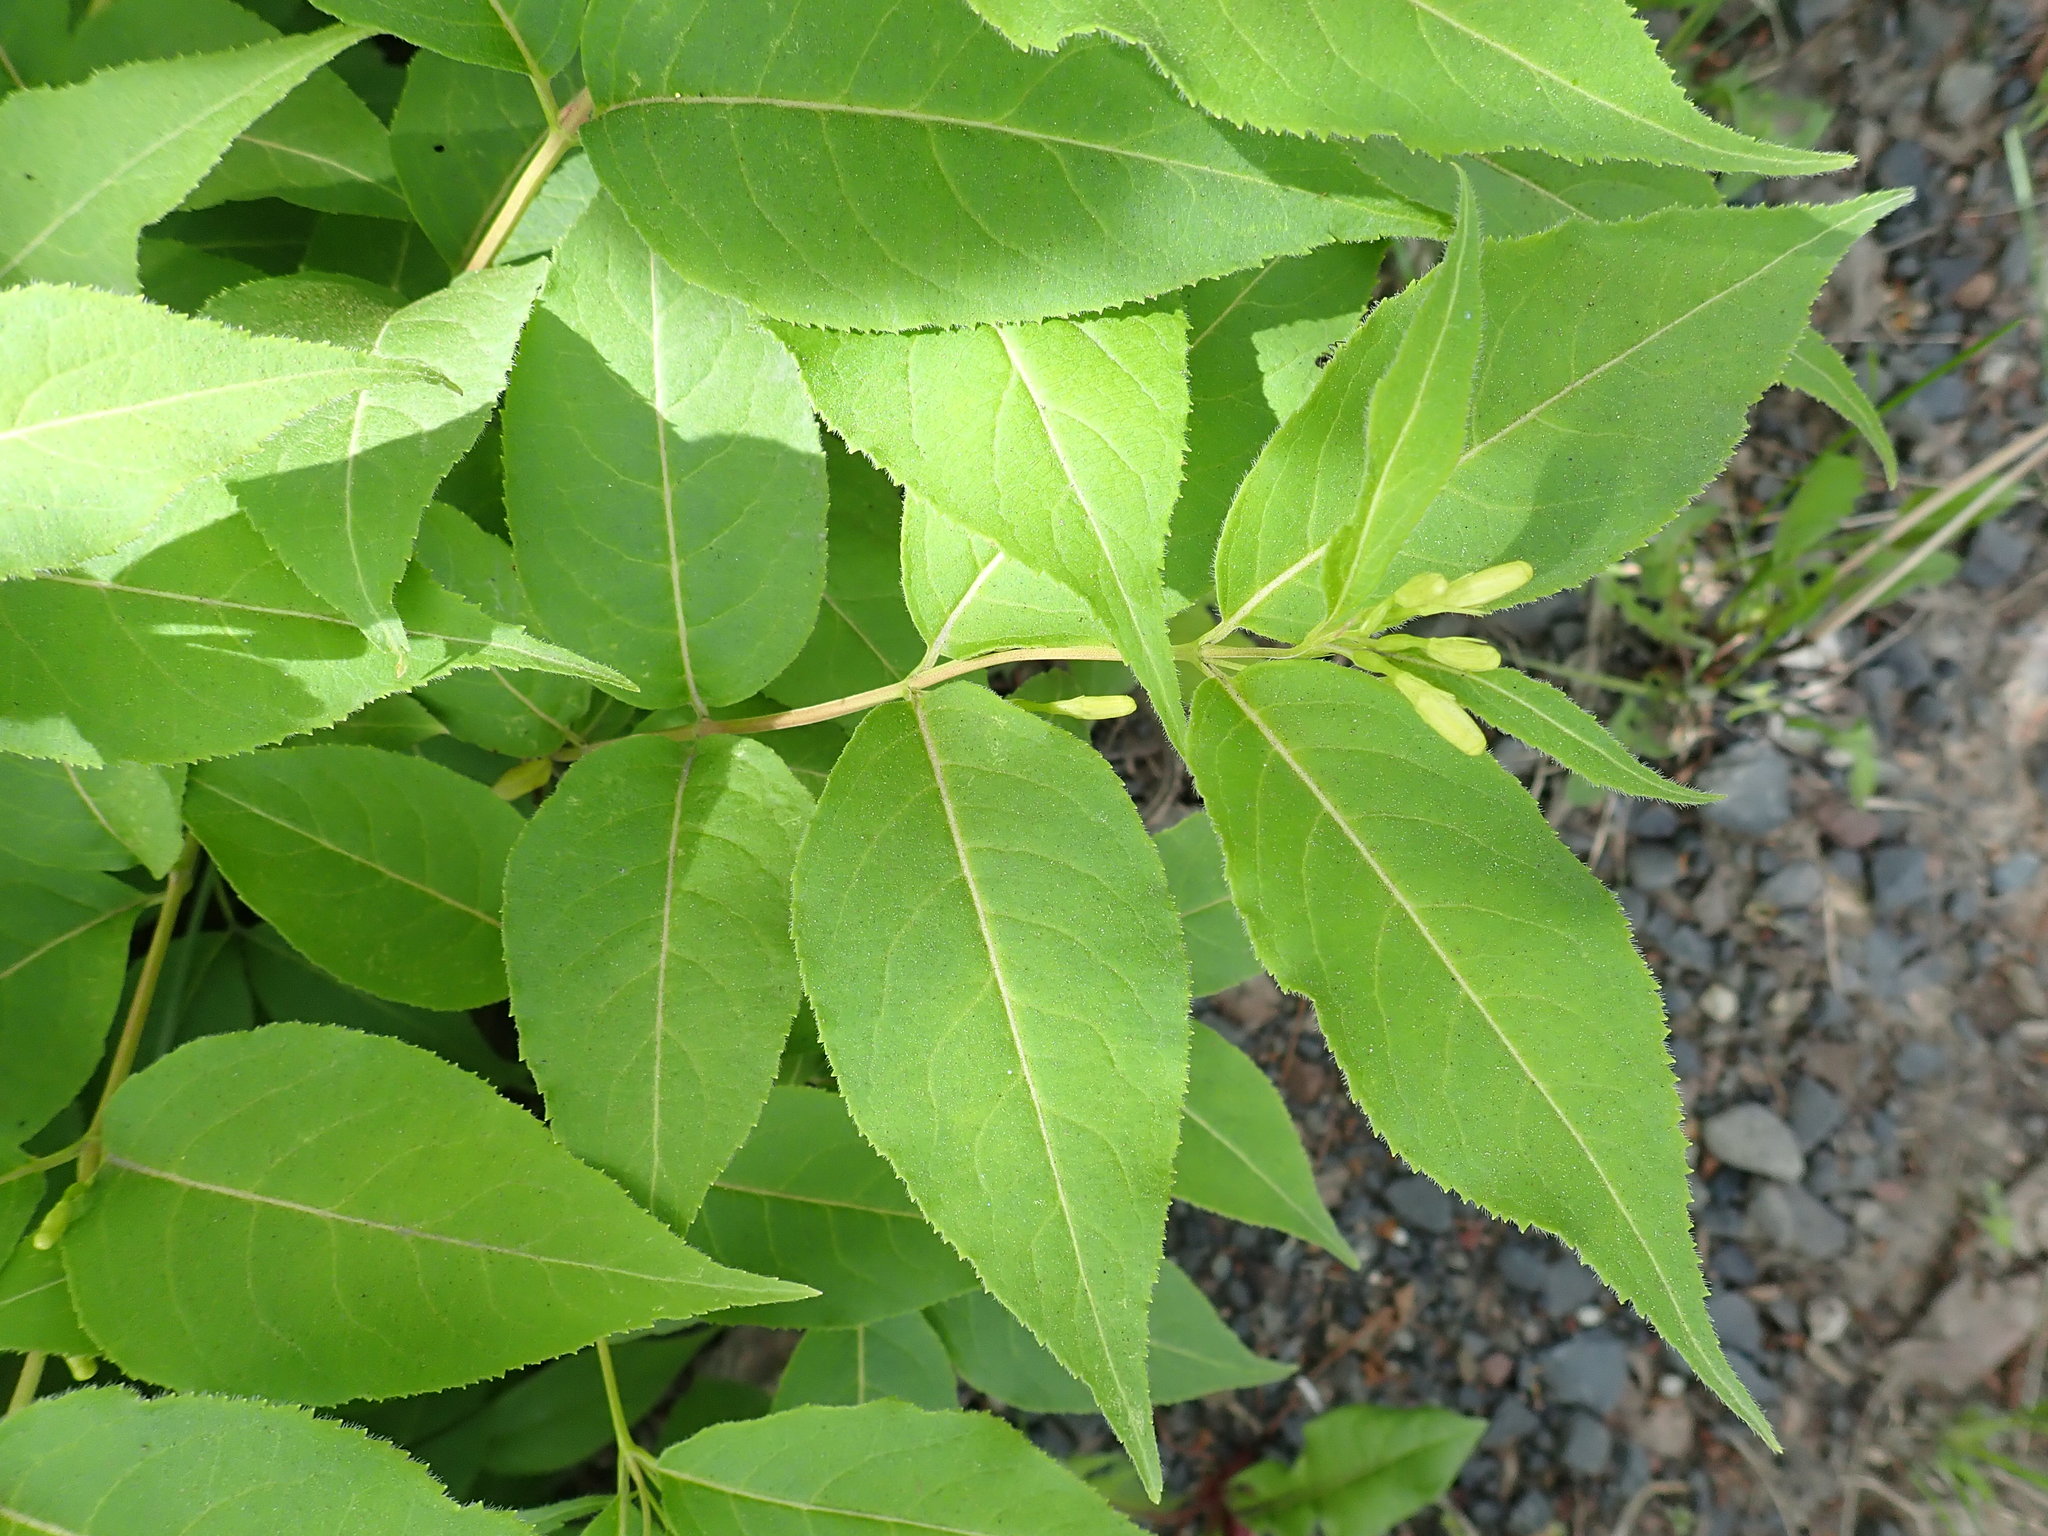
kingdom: Plantae
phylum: Tracheophyta
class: Magnoliopsida
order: Dipsacales
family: Caprifoliaceae
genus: Diervilla
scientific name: Diervilla lonicera
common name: Bush-honeysuckle
